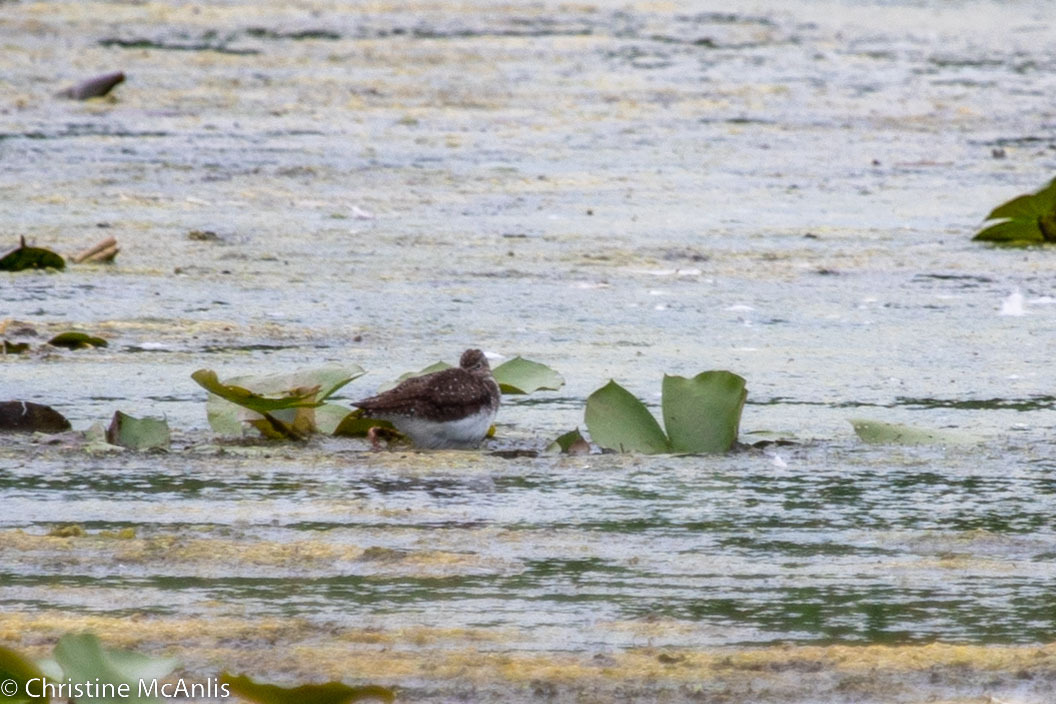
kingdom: Animalia
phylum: Chordata
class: Aves
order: Charadriiformes
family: Scolopacidae
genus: Tringa
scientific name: Tringa solitaria
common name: Solitary sandpiper
